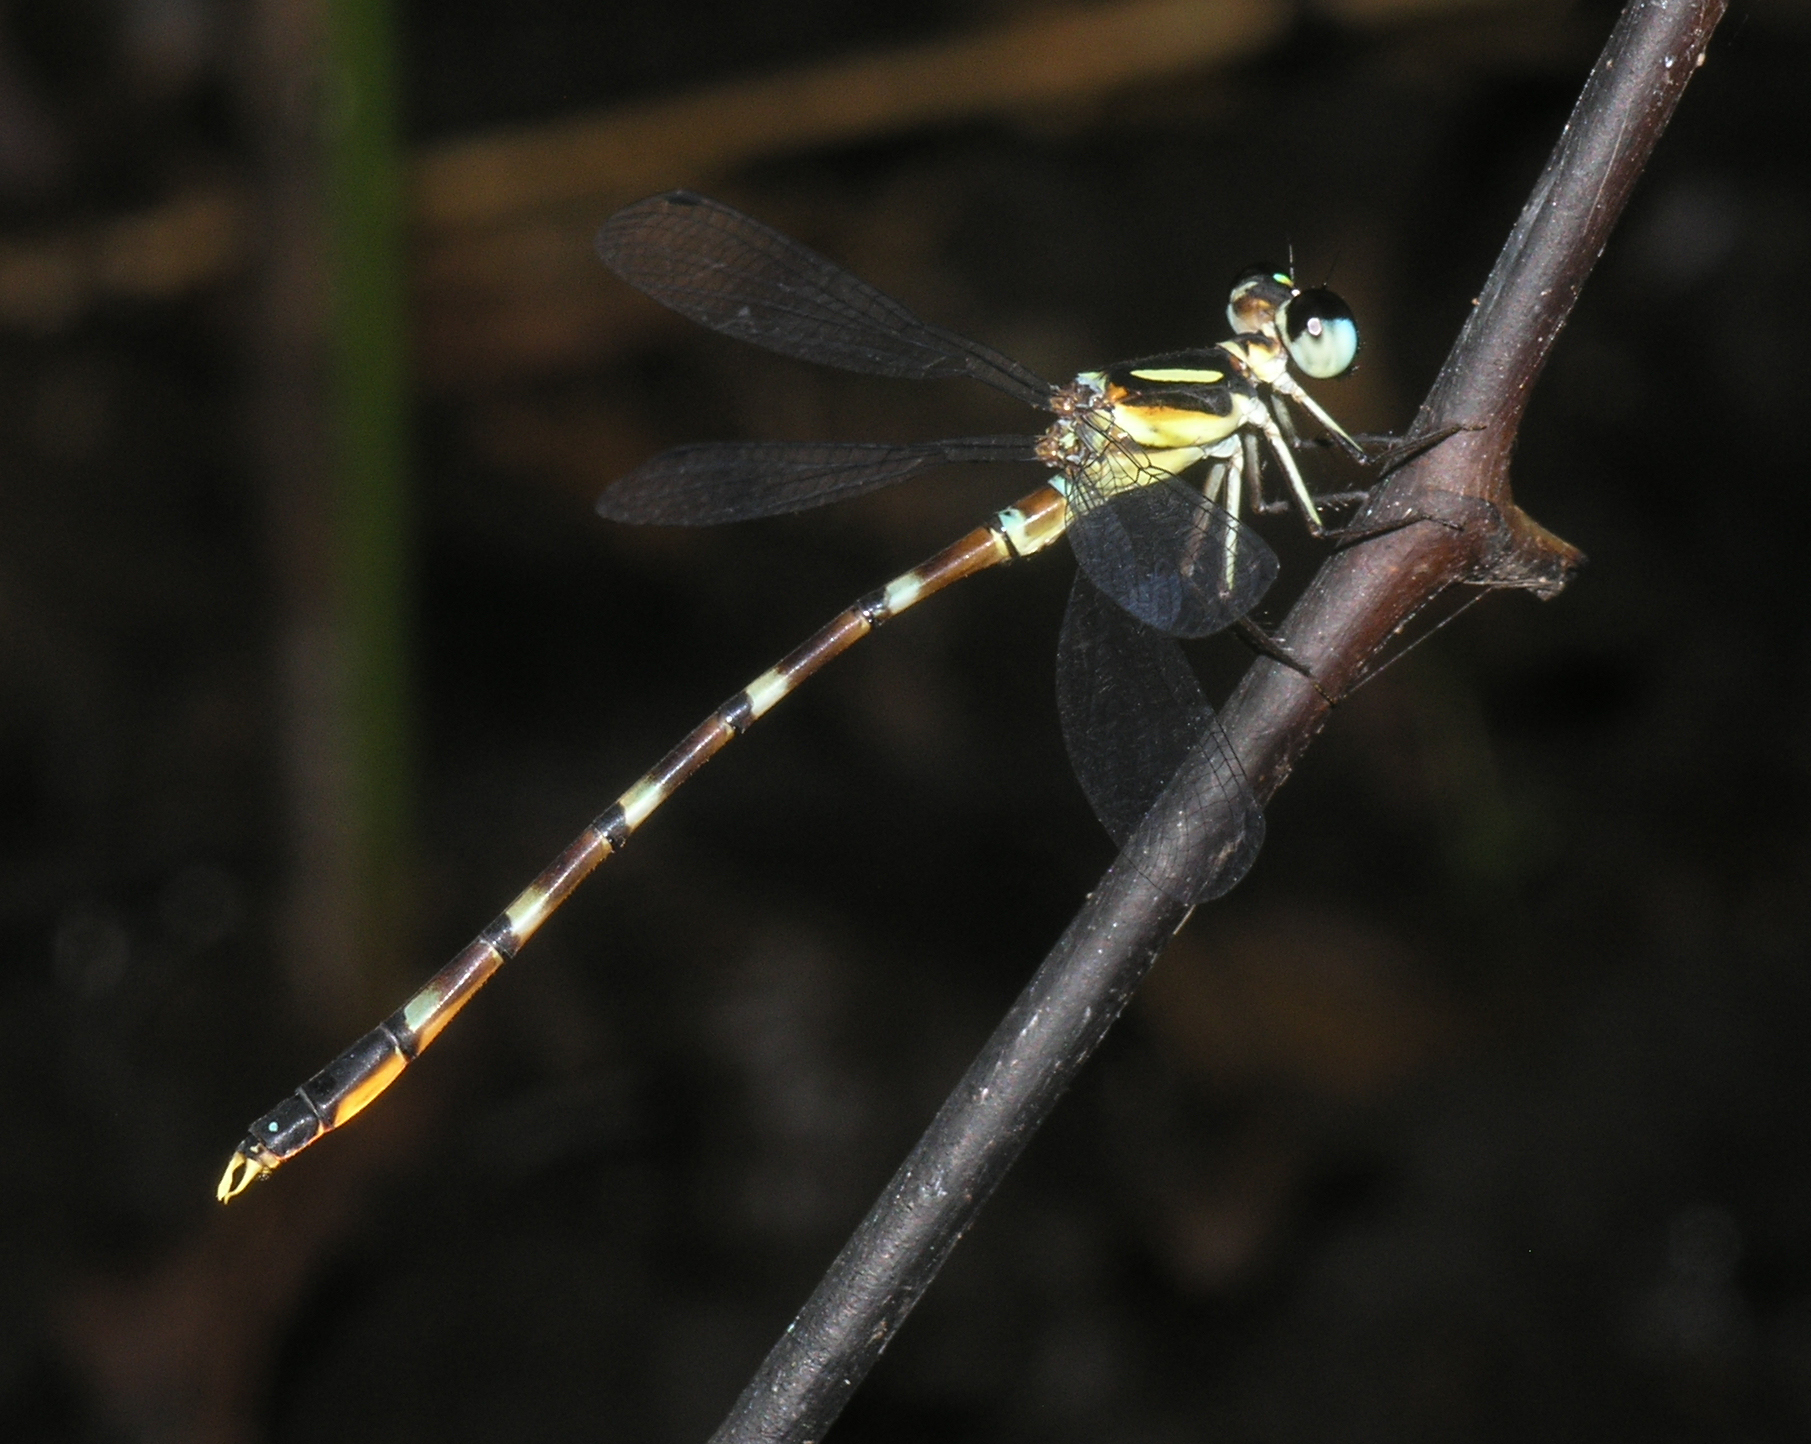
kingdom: Animalia
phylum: Arthropoda
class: Insecta
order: Odonata
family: Philosinidae
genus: Rhinagrion
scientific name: Rhinagrion hainanense
